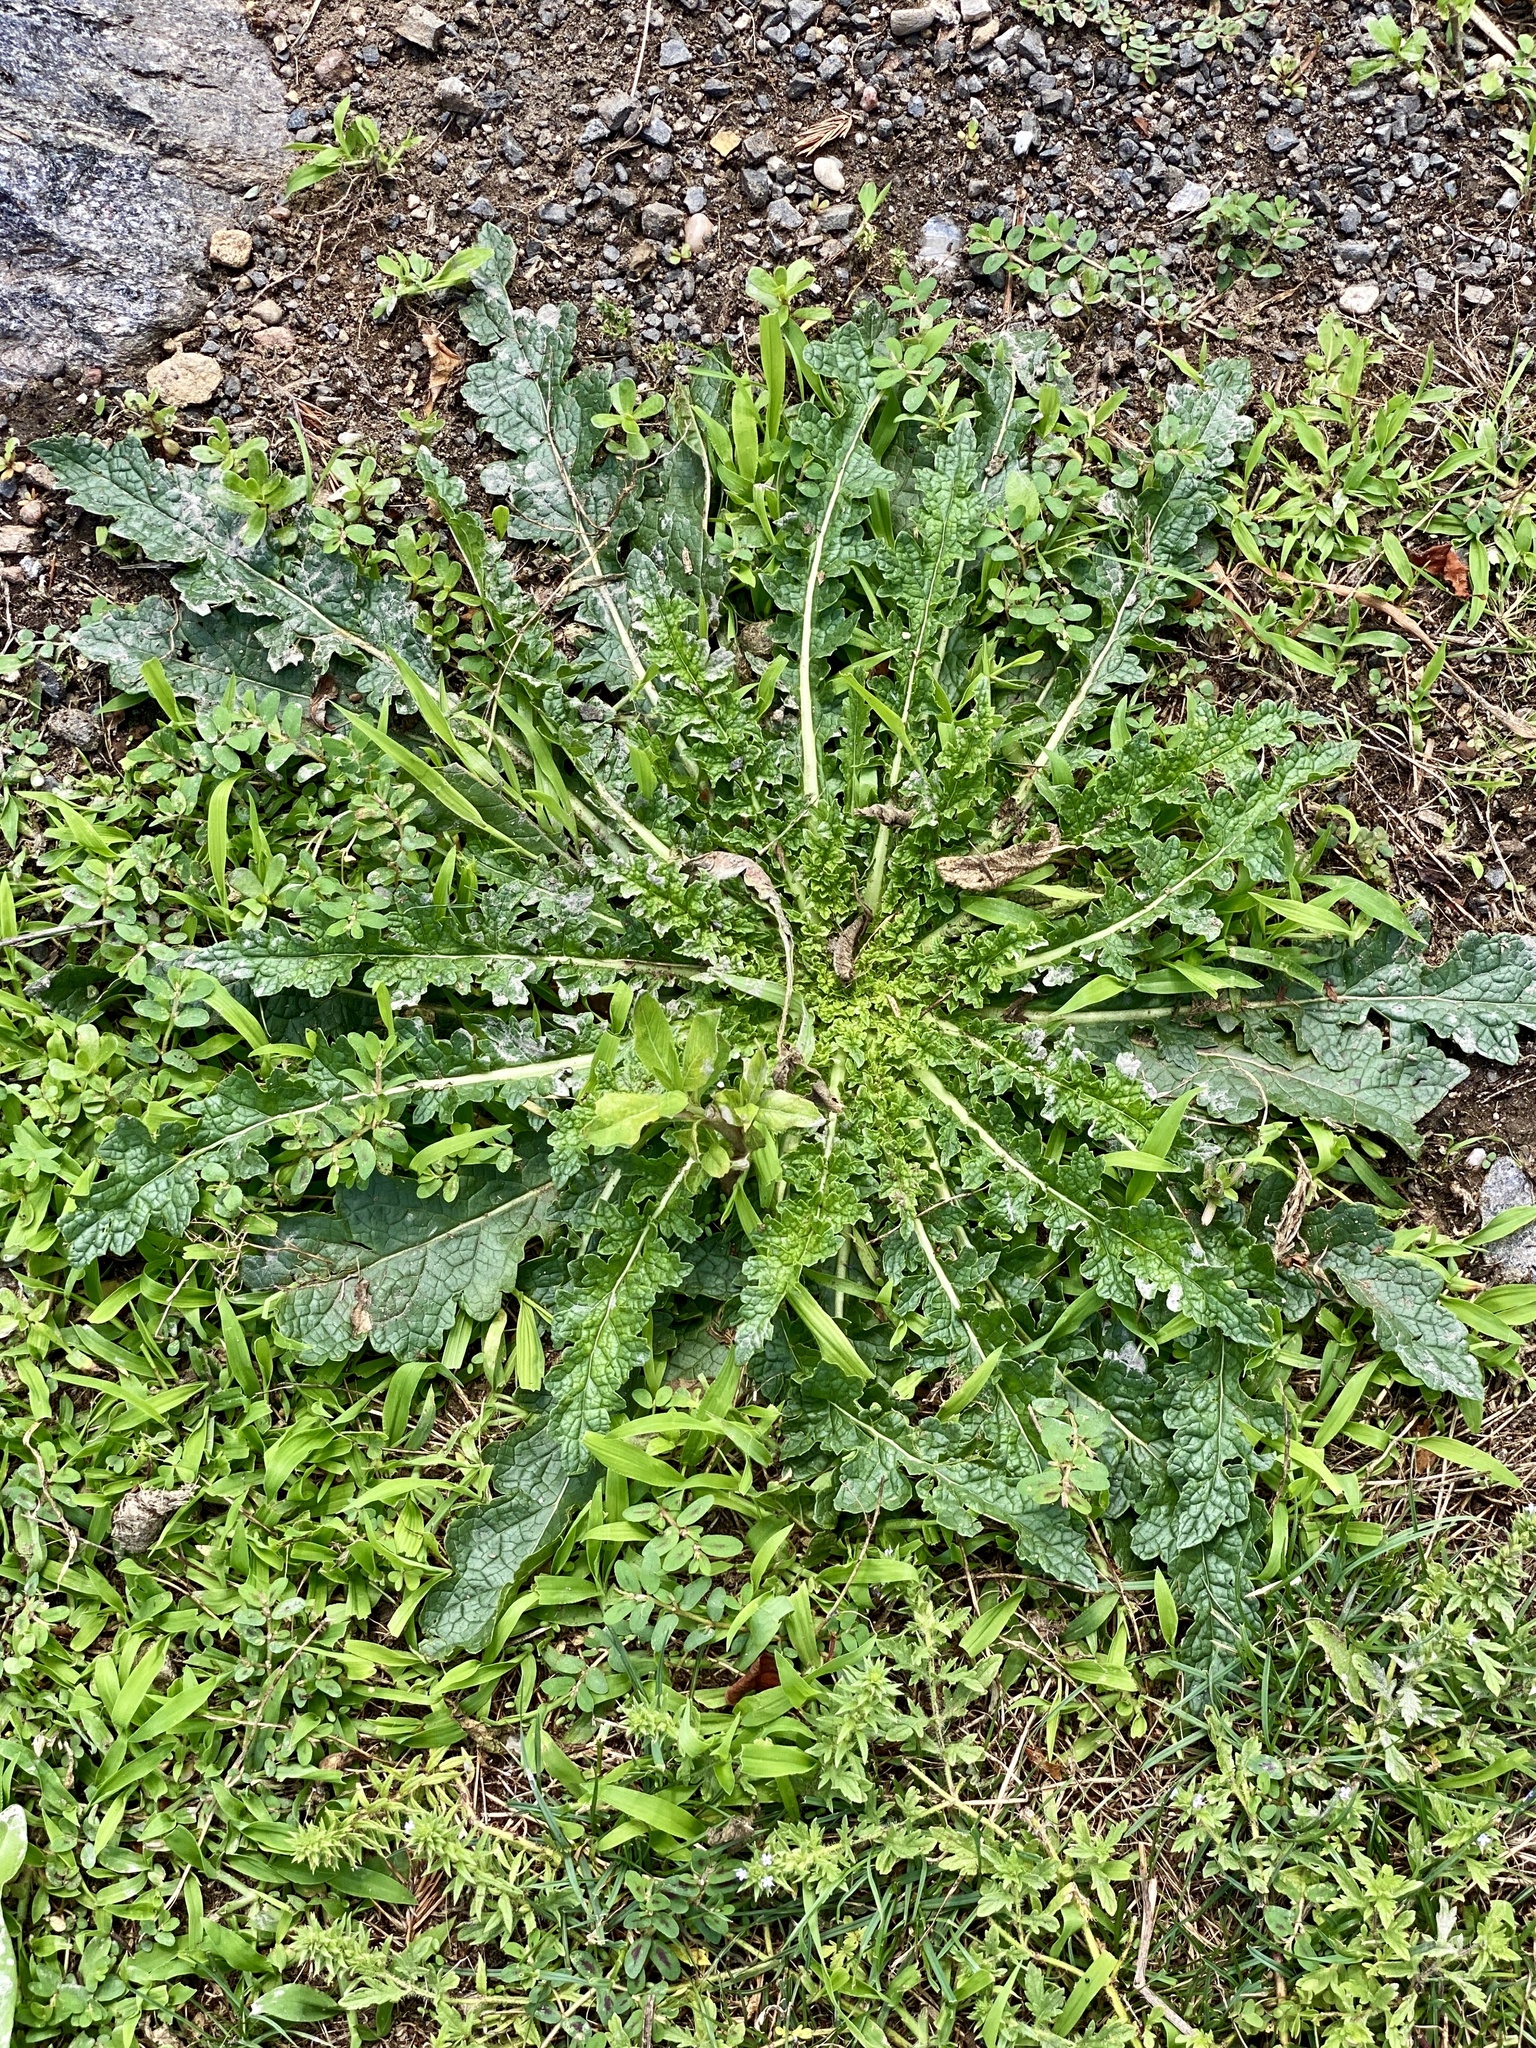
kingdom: Plantae
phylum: Tracheophyta
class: Magnoliopsida
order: Lamiales
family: Scrophulariaceae
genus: Verbascum
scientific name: Verbascum blattaria
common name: Moth mullein
